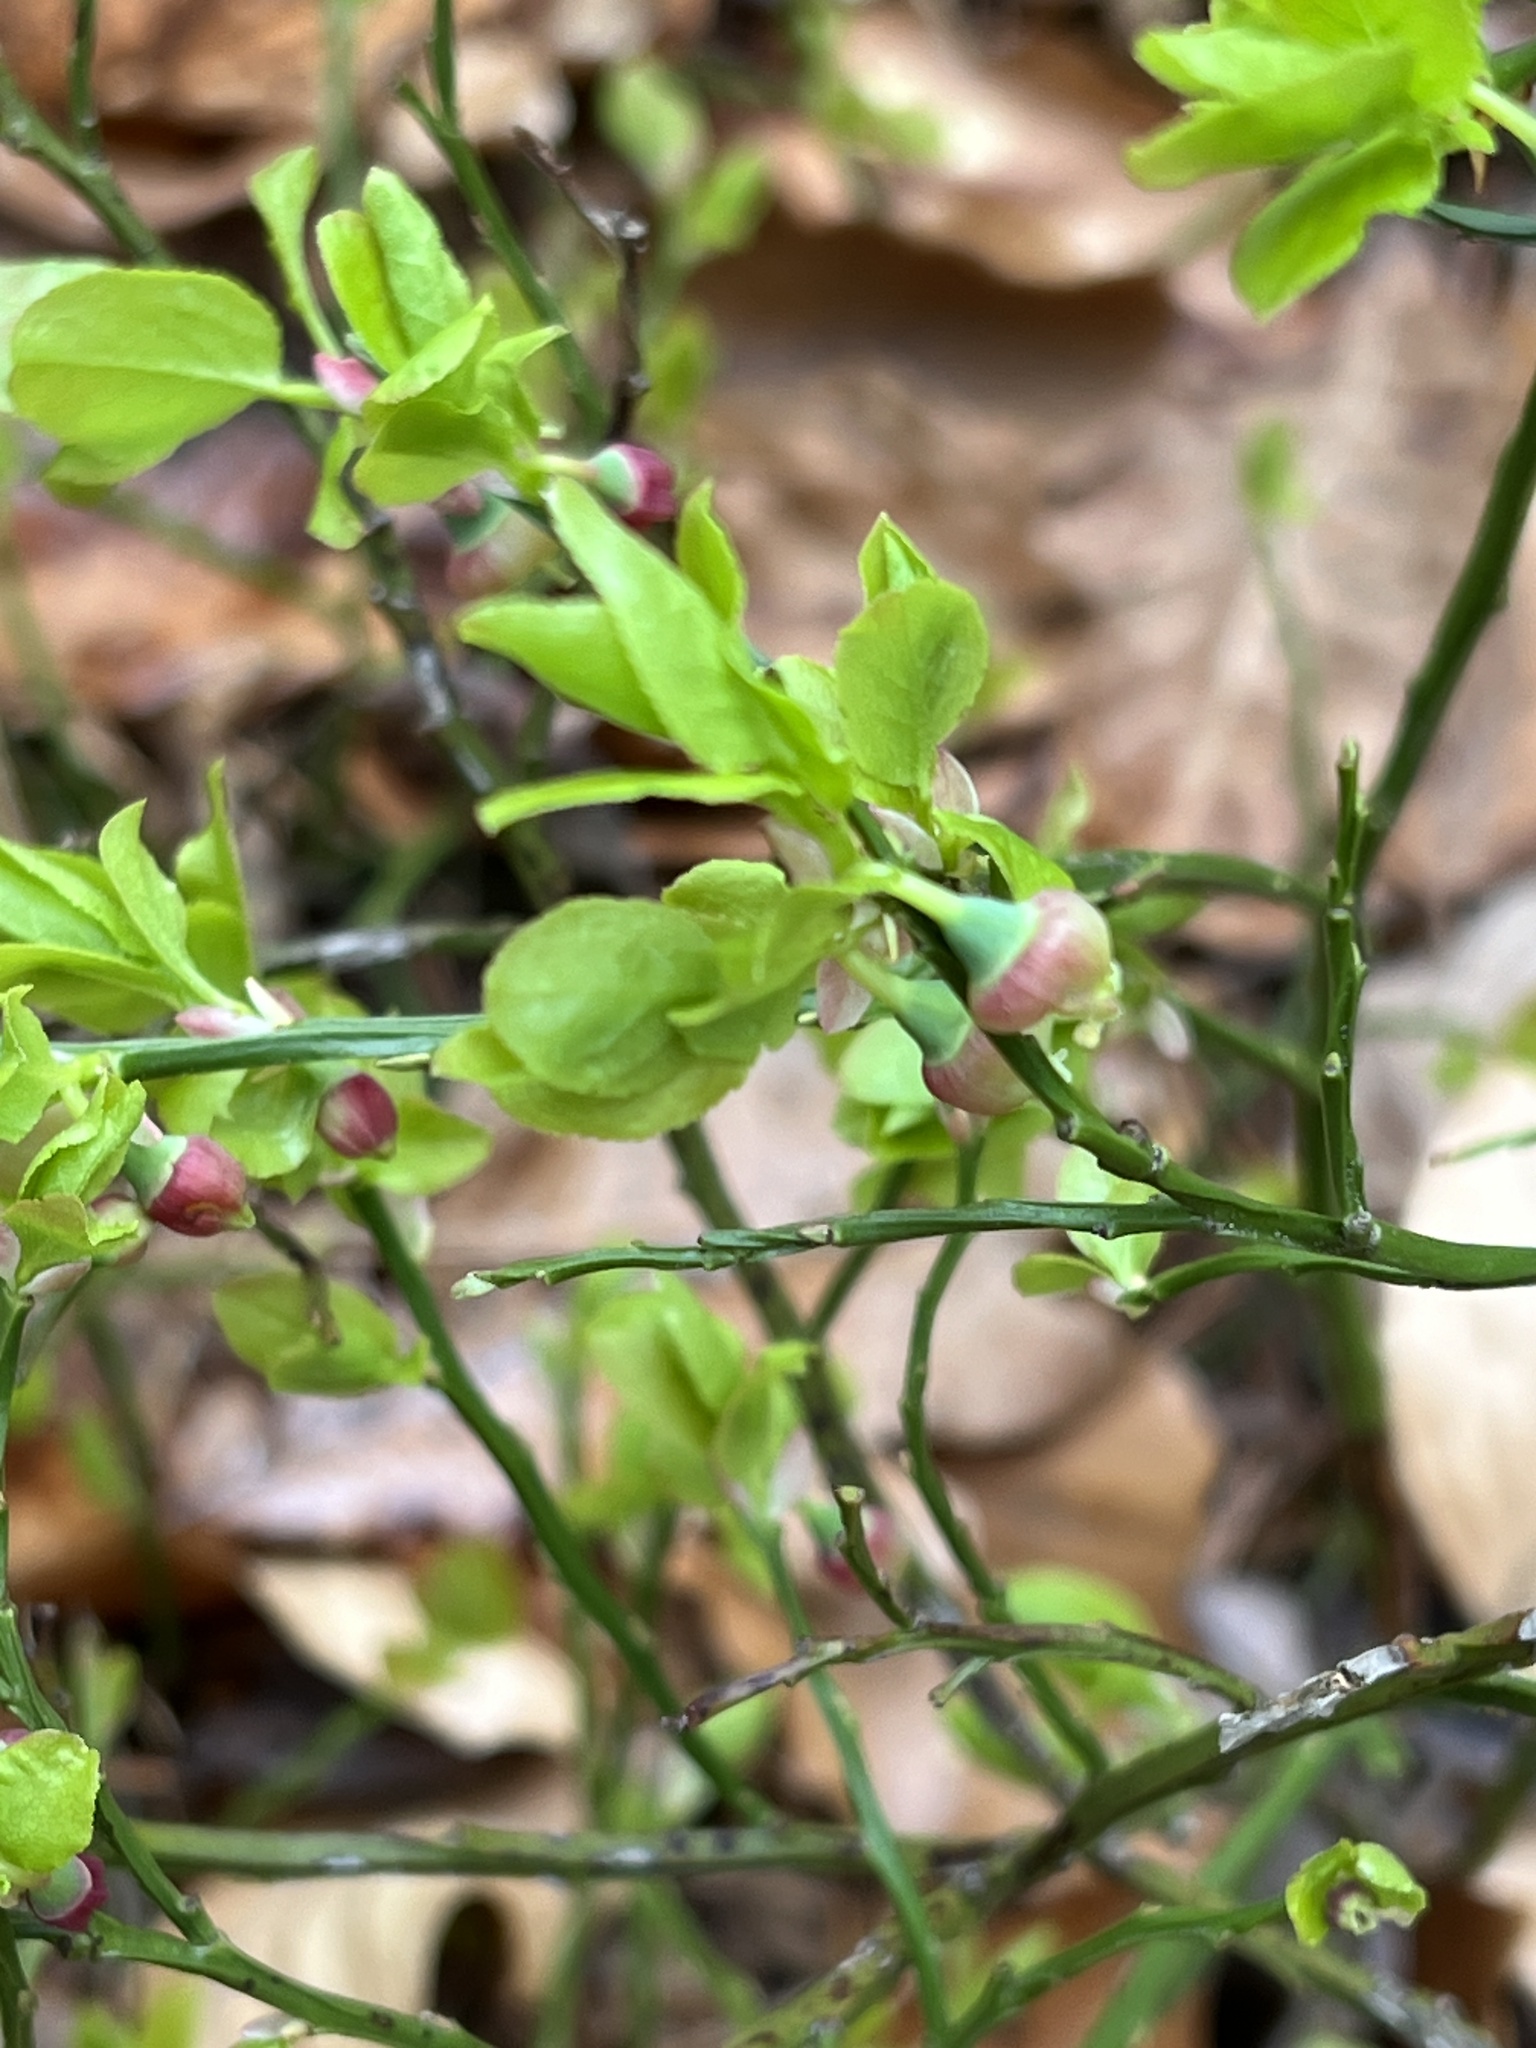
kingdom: Plantae
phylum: Tracheophyta
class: Magnoliopsida
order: Ericales
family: Ericaceae
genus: Vaccinium
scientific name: Vaccinium myrtillus
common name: Bilberry
